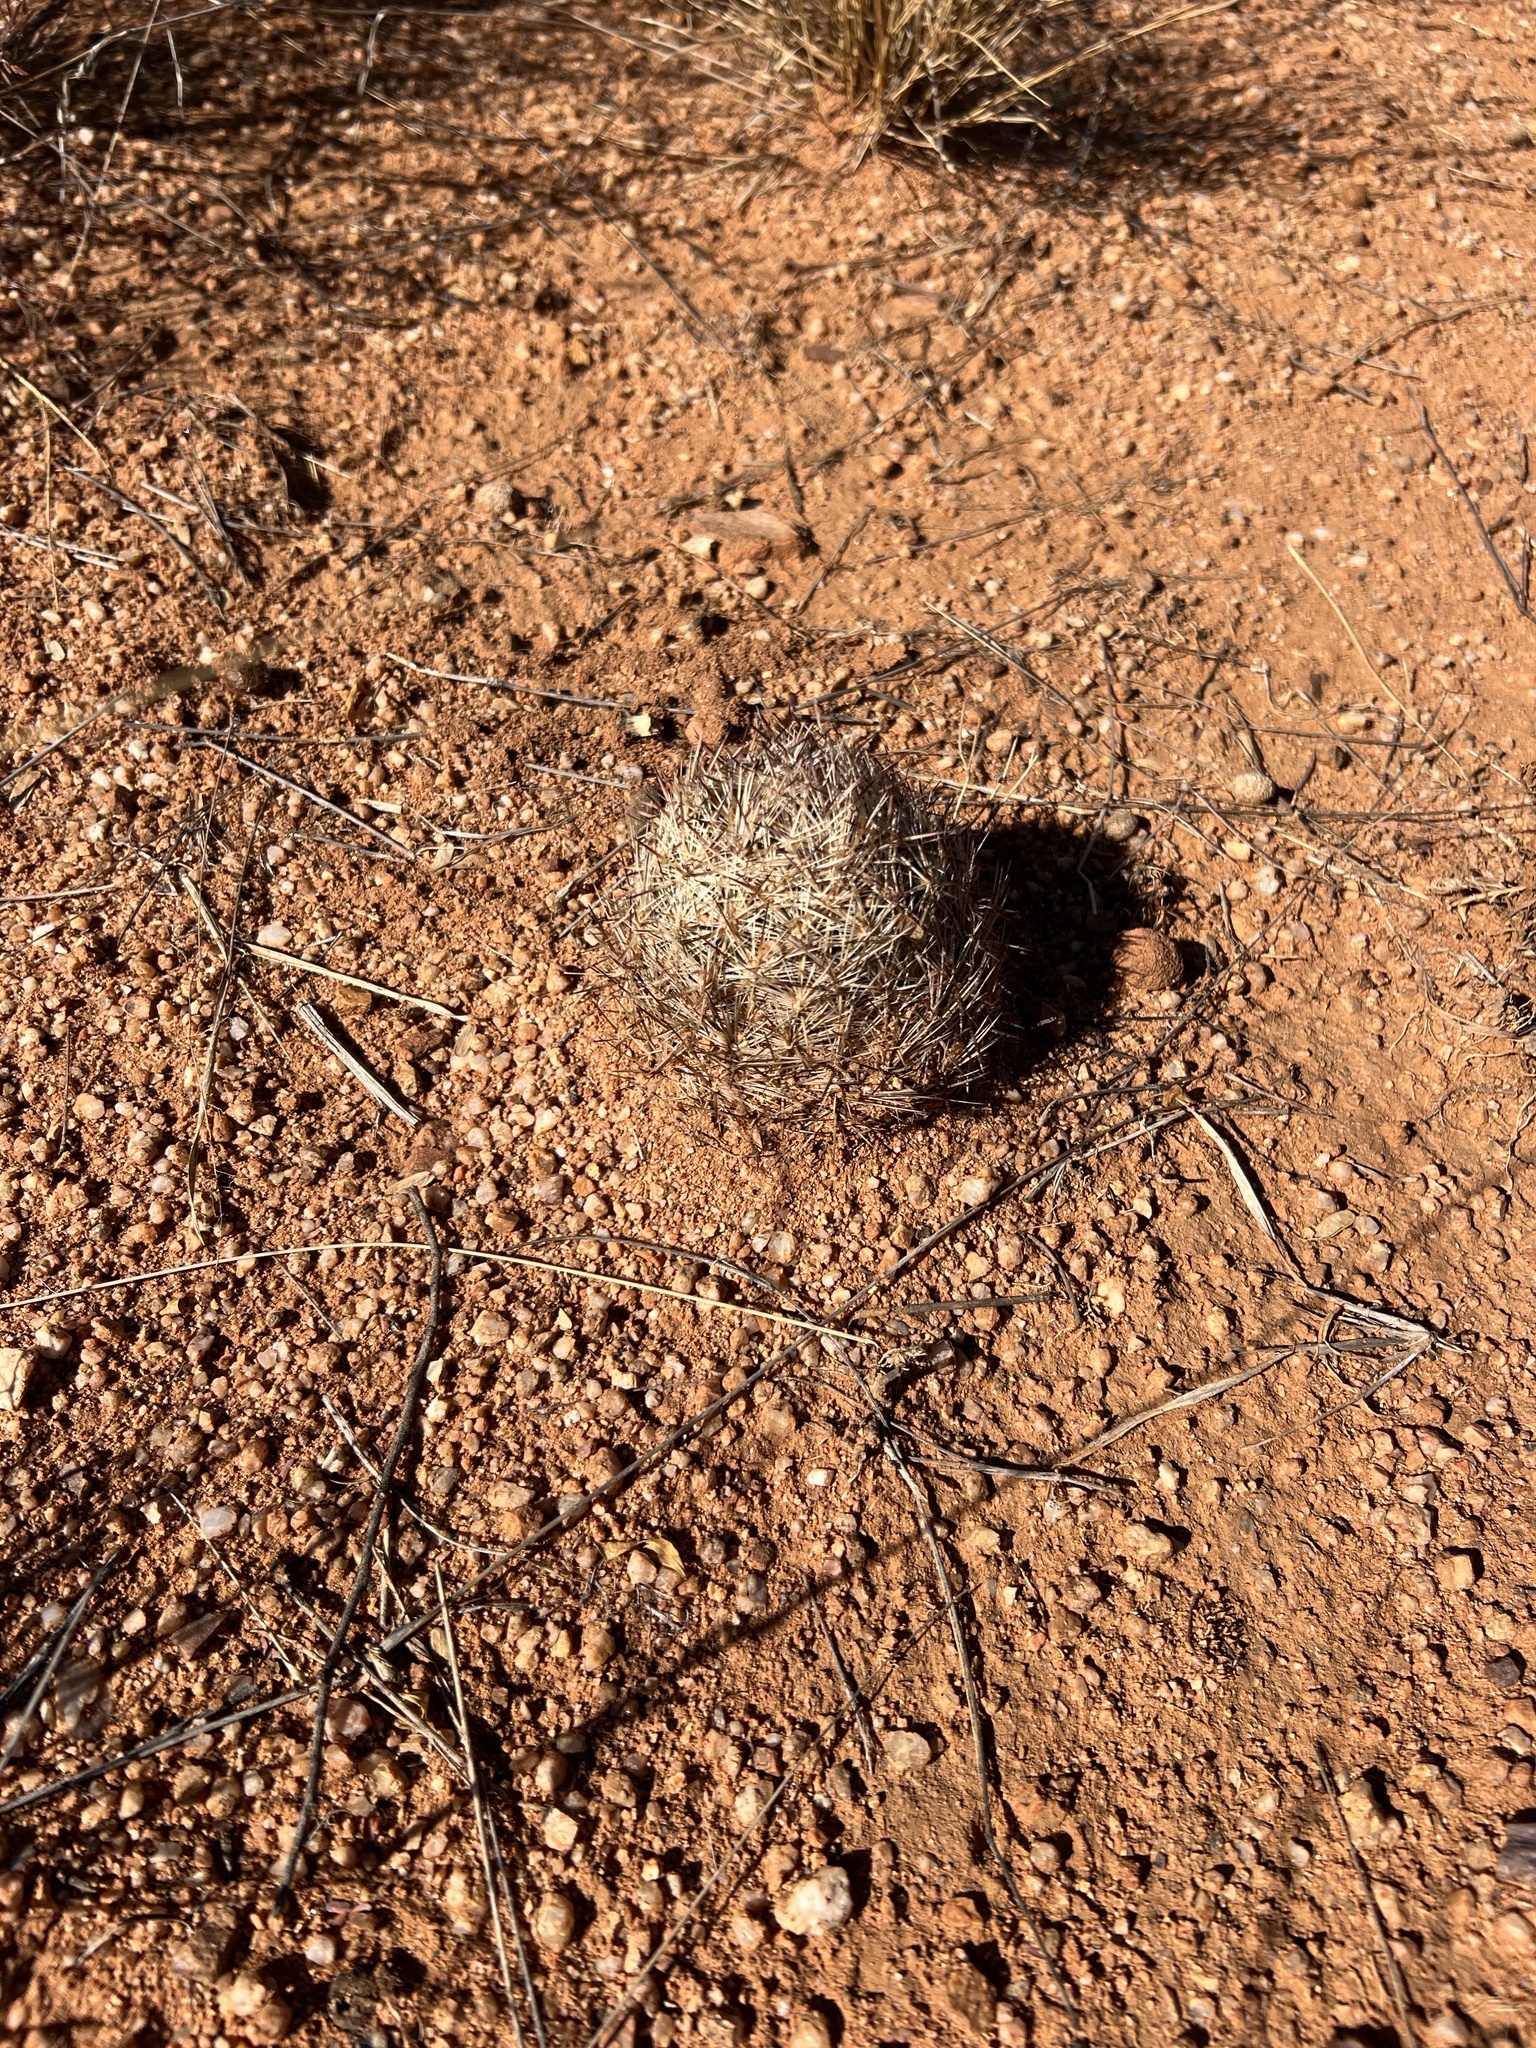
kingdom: Plantae
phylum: Tracheophyta
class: Magnoliopsida
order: Caryophyllales
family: Cactaceae
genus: Pelecyphora
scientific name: Pelecyphora vivipara
